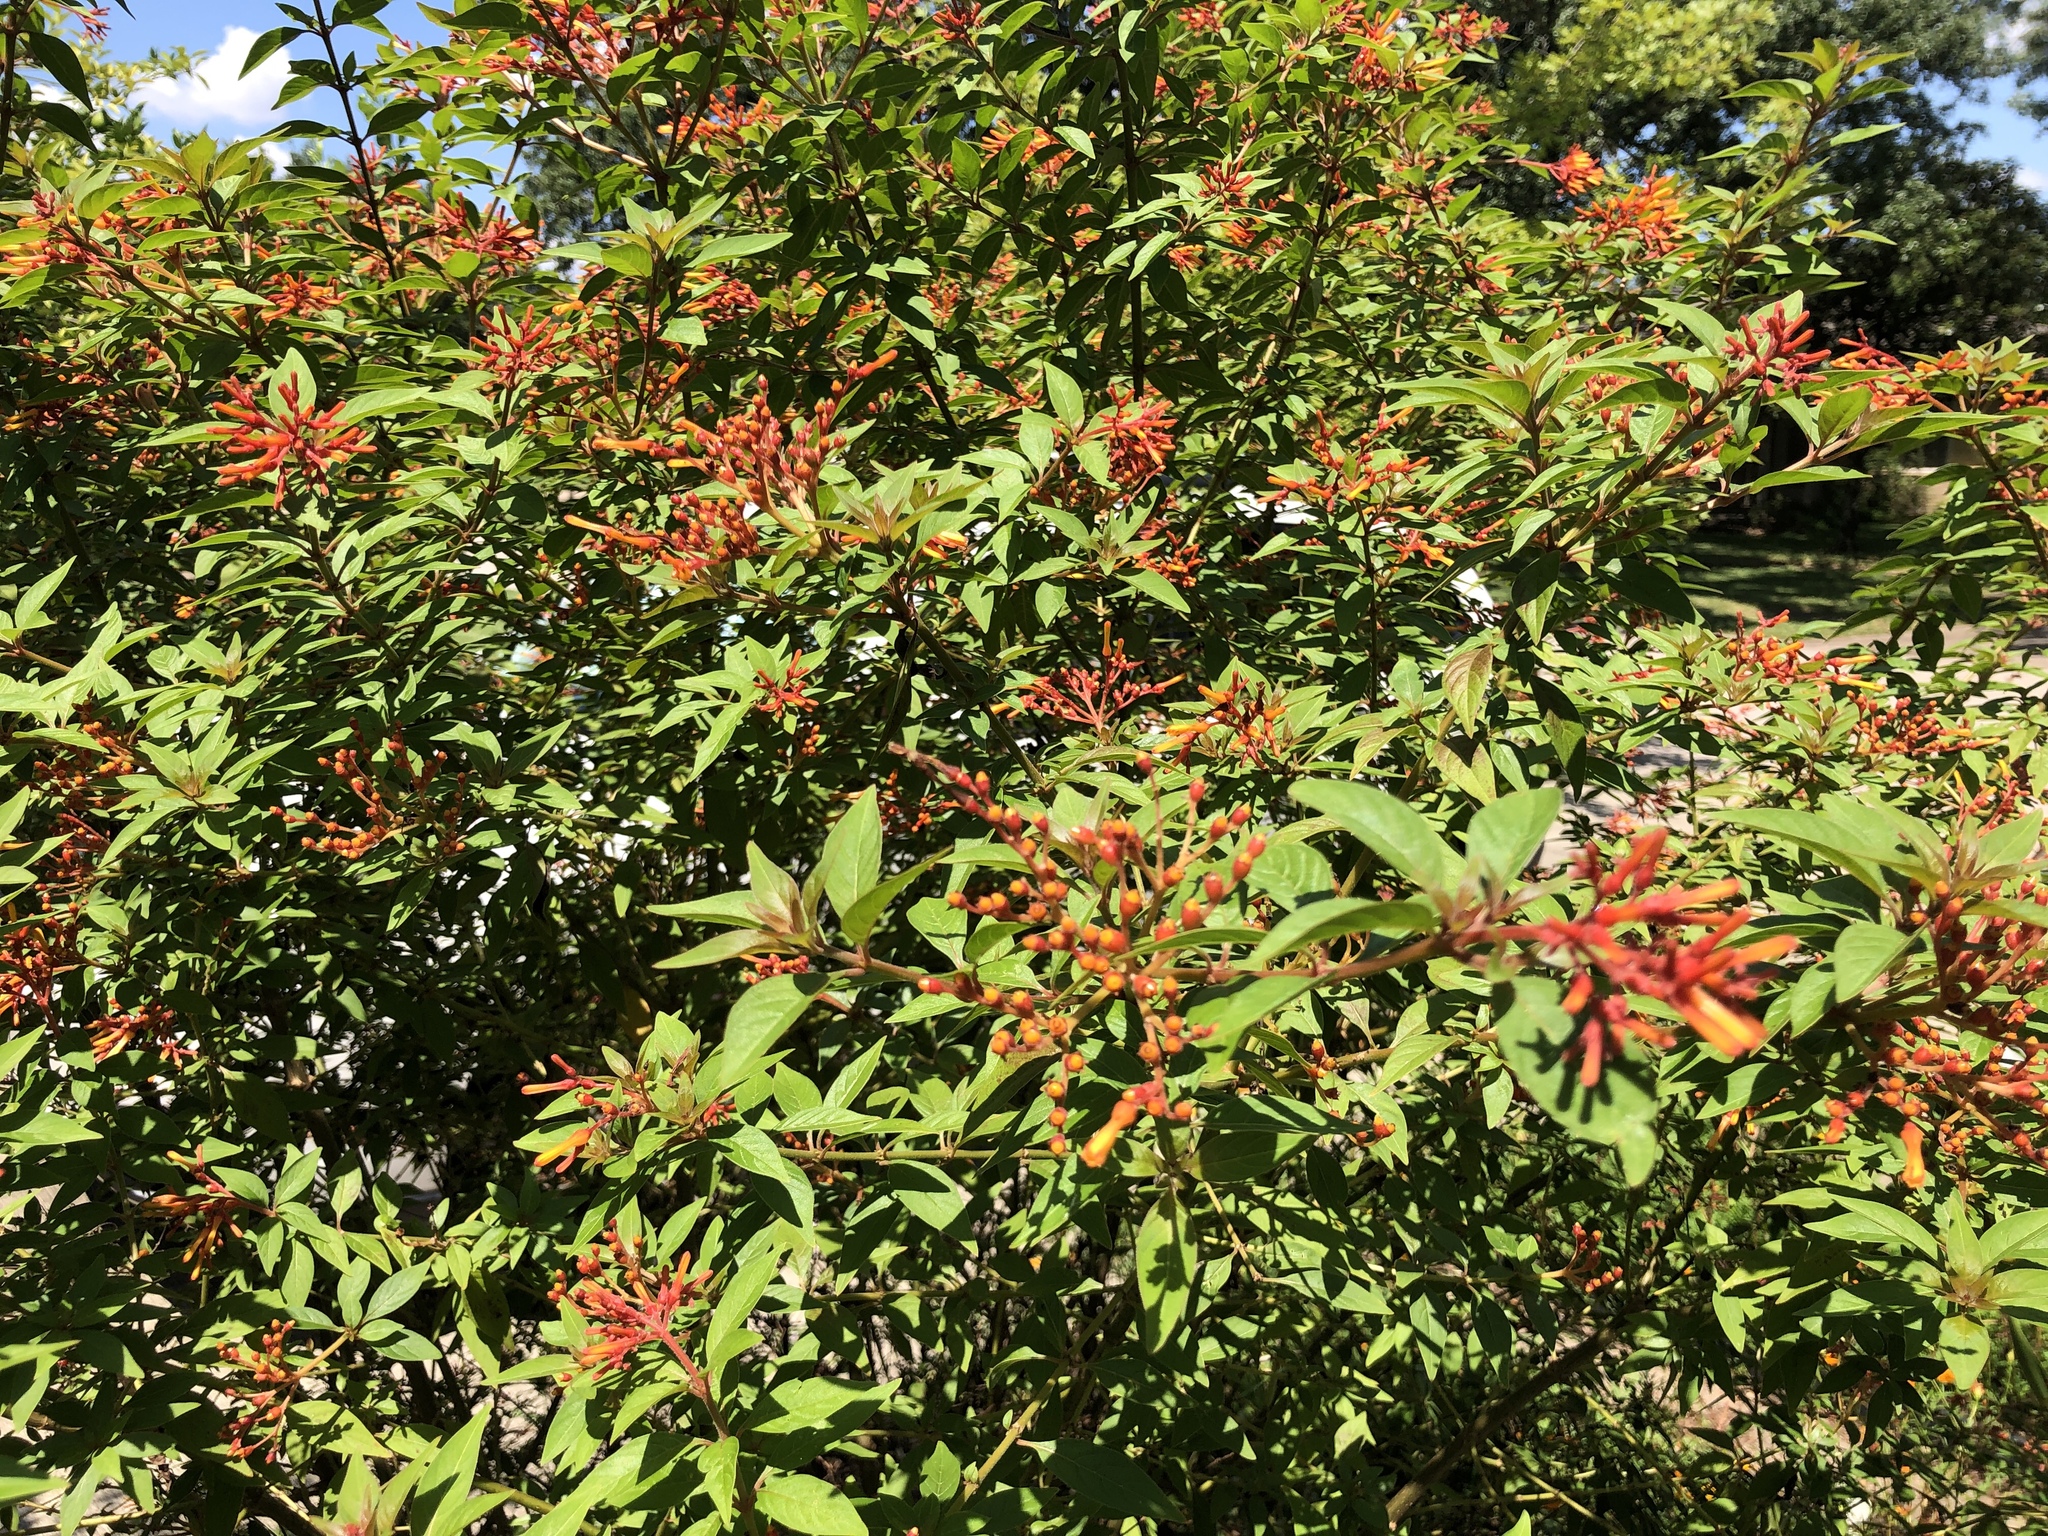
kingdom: Plantae
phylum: Tracheophyta
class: Magnoliopsida
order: Gentianales
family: Rubiaceae
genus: Hamelia
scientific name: Hamelia patens
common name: Redhead
